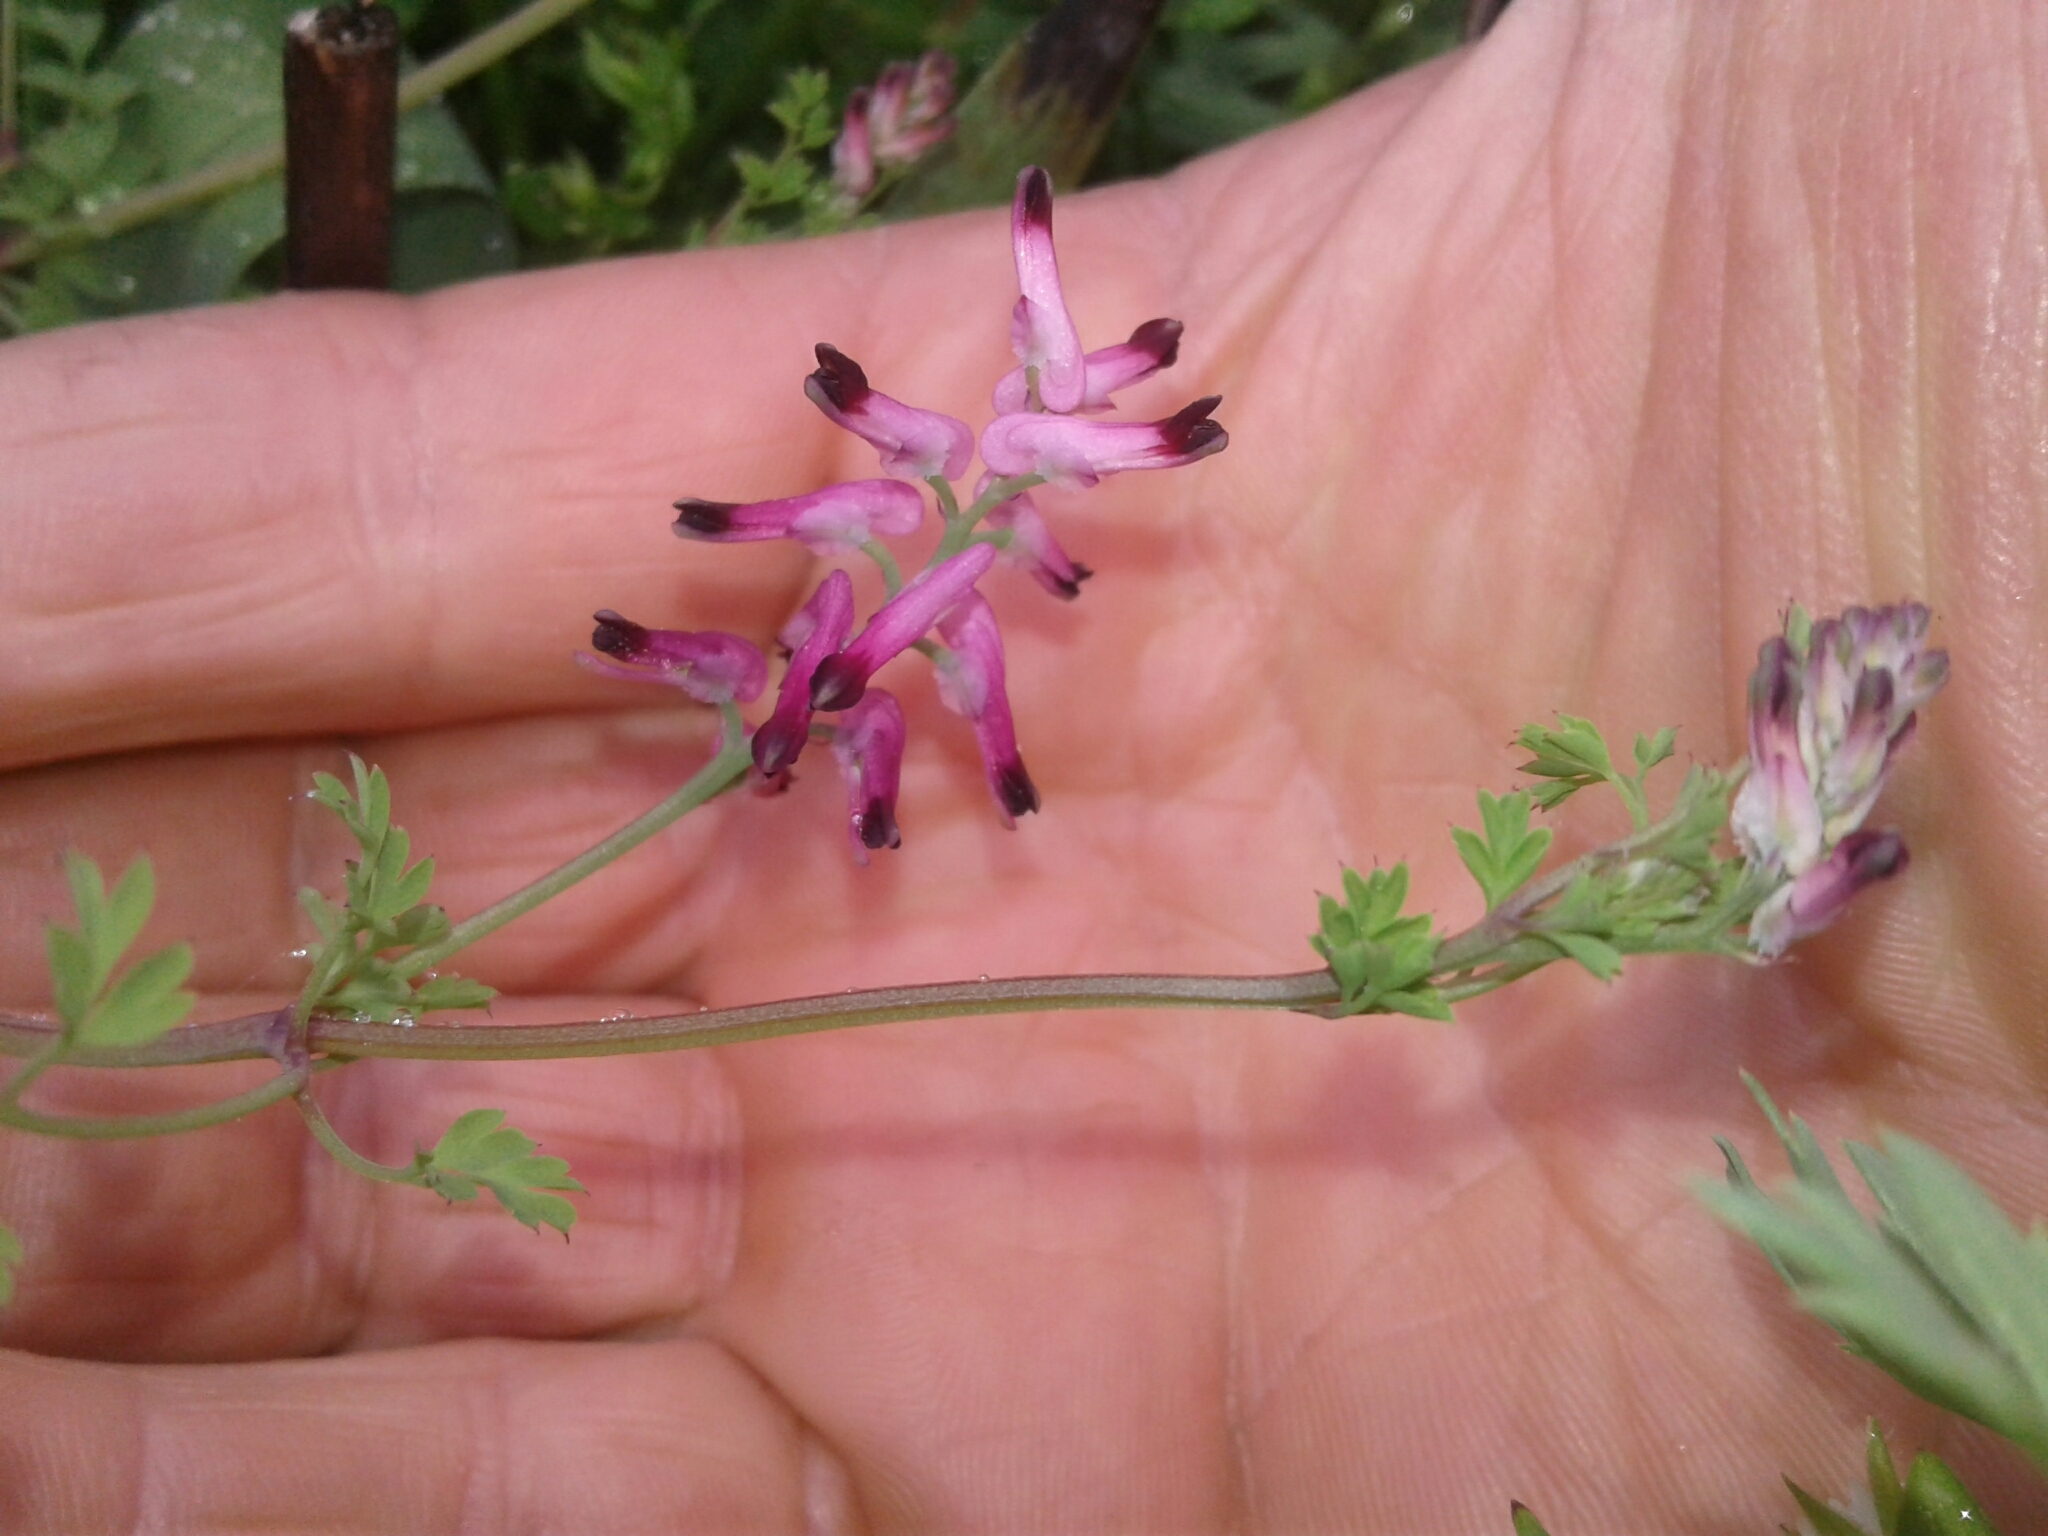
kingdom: Plantae
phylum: Tracheophyta
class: Magnoliopsida
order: Ranunculales
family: Papaveraceae
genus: Fumaria
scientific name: Fumaria muralis
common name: Common ramping-fumitory
